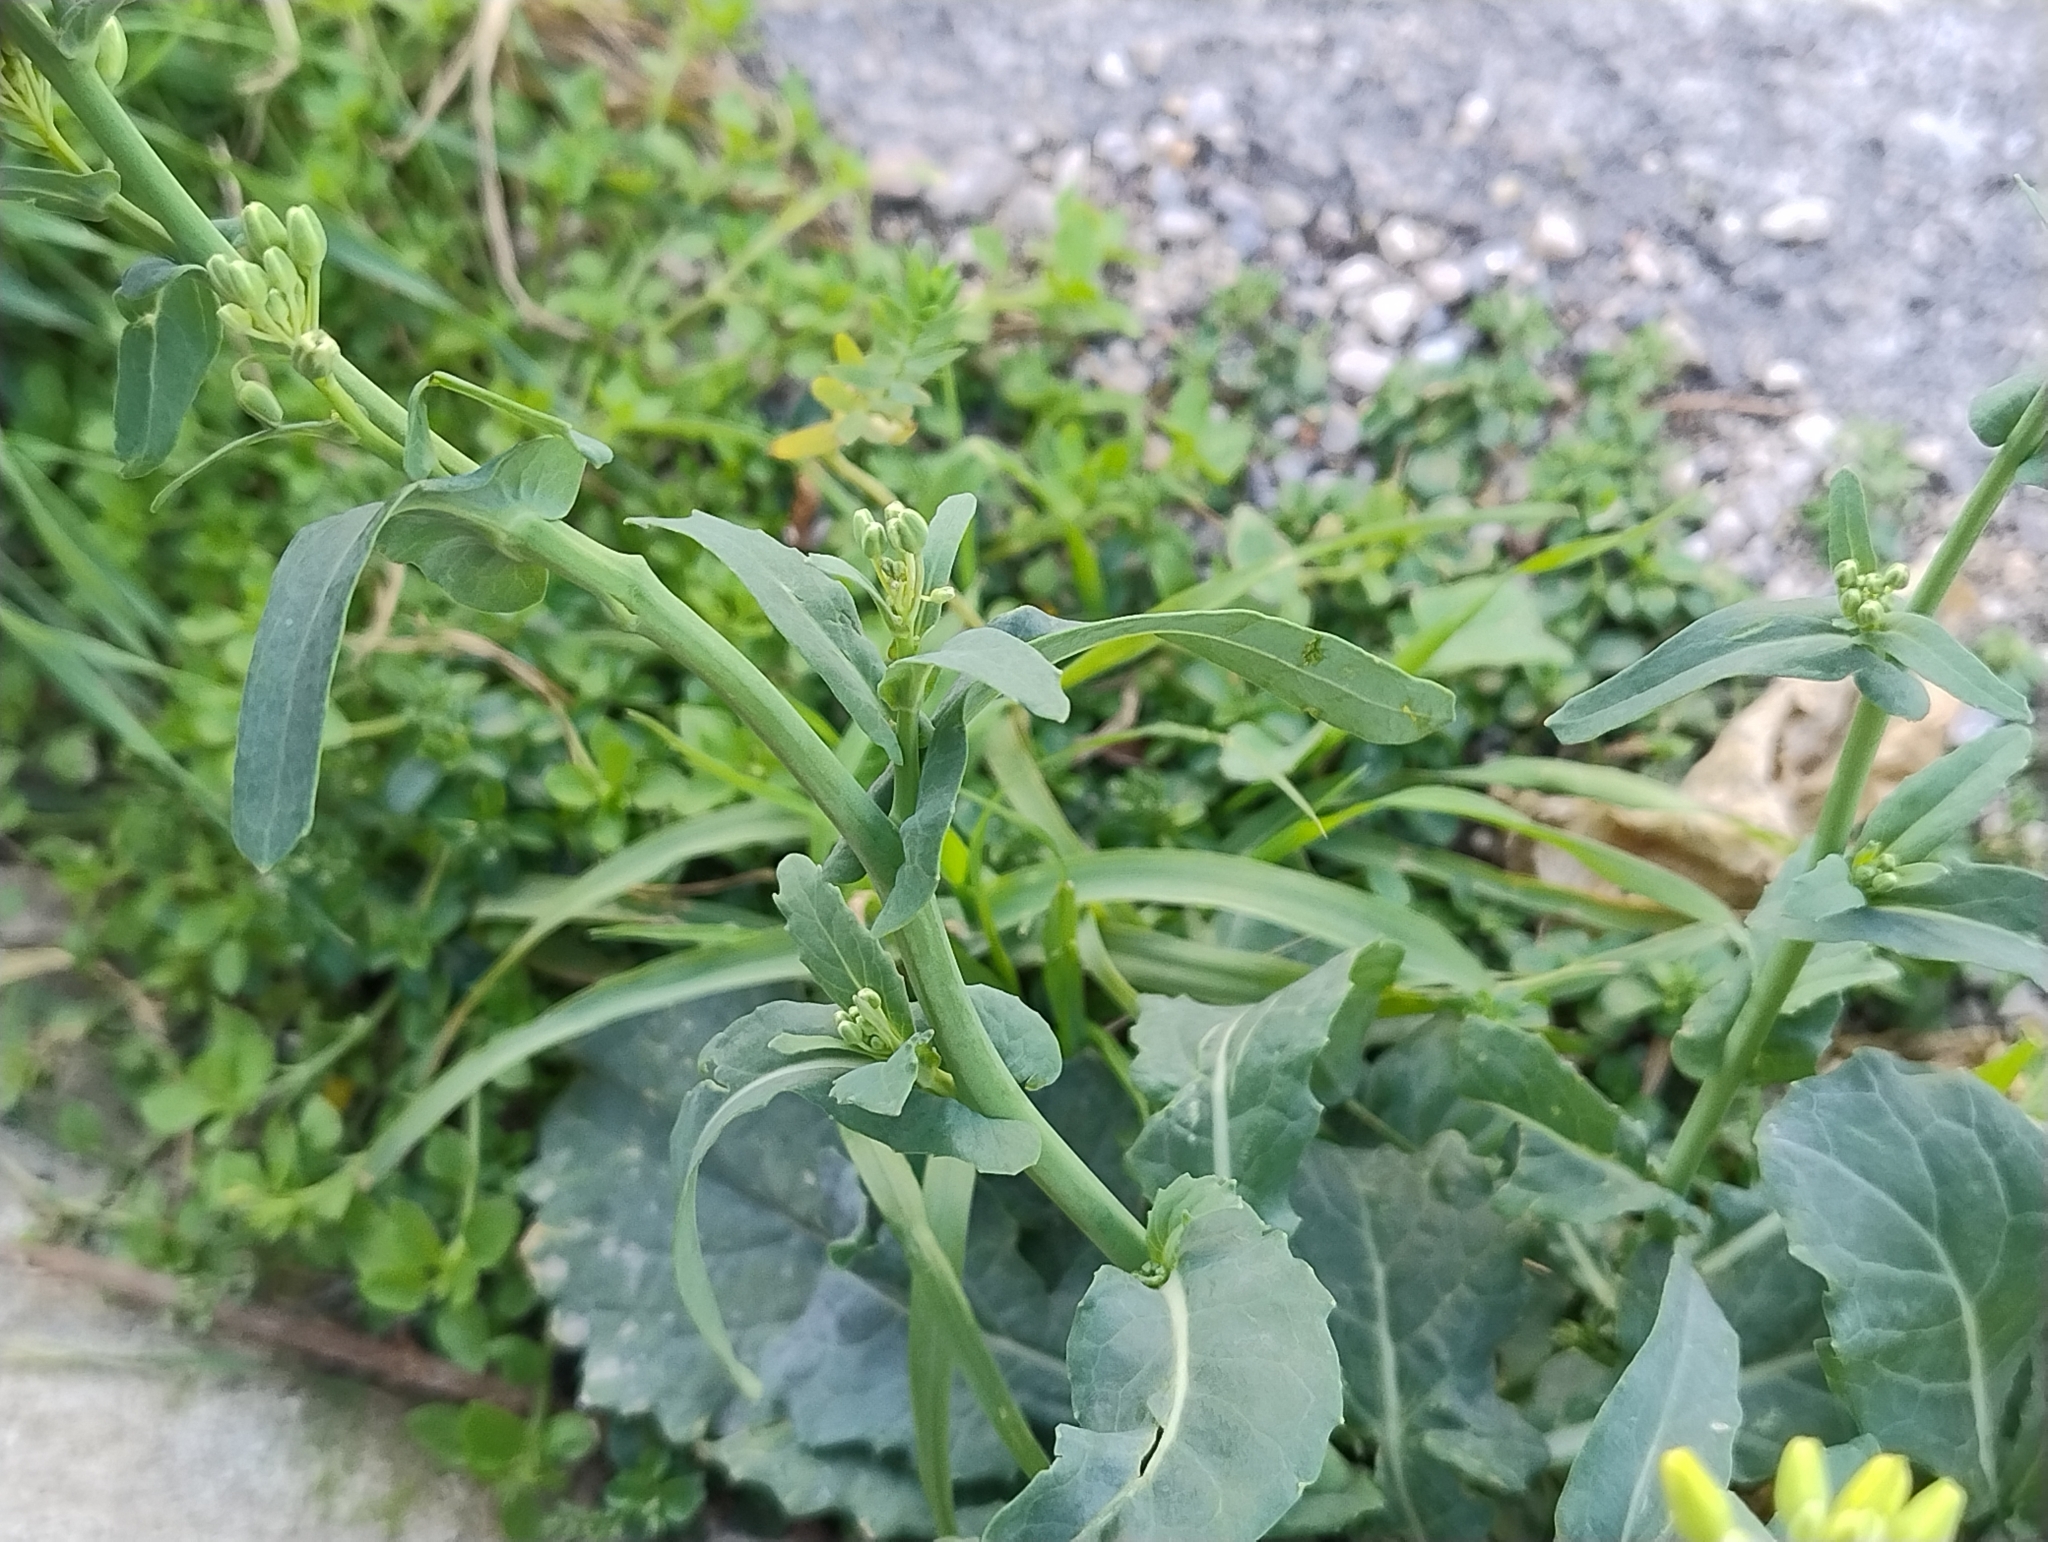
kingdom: Plantae
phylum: Tracheophyta
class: Magnoliopsida
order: Brassicales
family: Brassicaceae
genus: Brassica
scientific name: Brassica oleracea
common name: Cabbage
